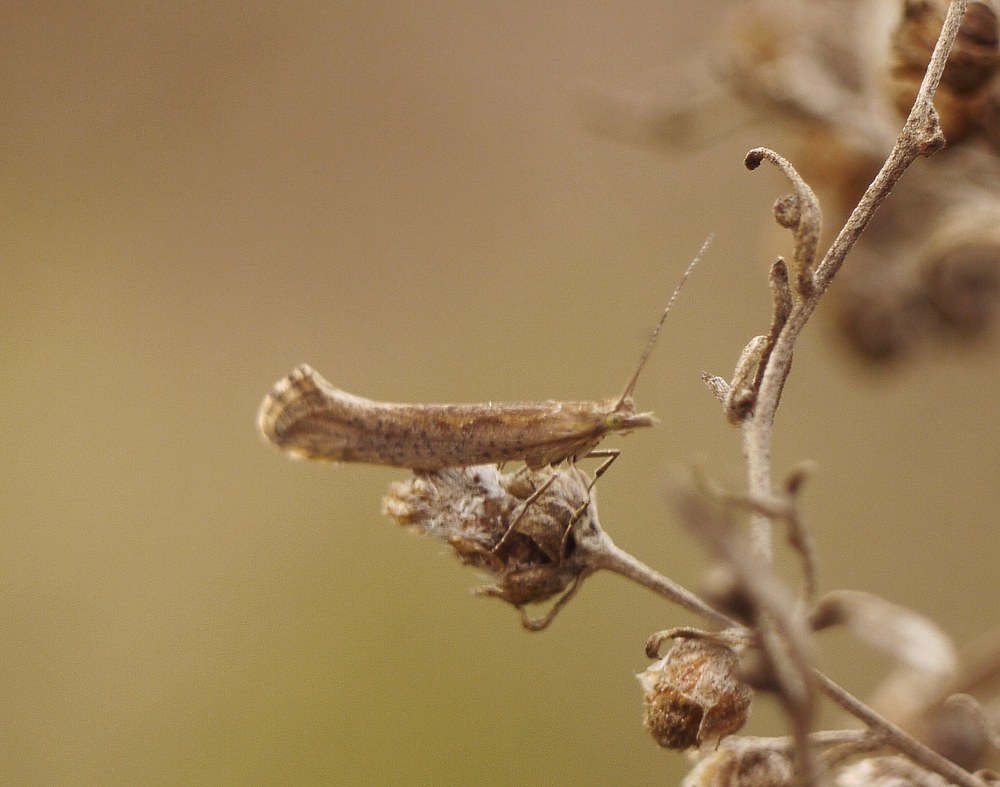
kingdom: Animalia
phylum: Arthropoda
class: Insecta
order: Lepidoptera
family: Plutellidae
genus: Plutella
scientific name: Plutella xylostella
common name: Diamond-back moth
